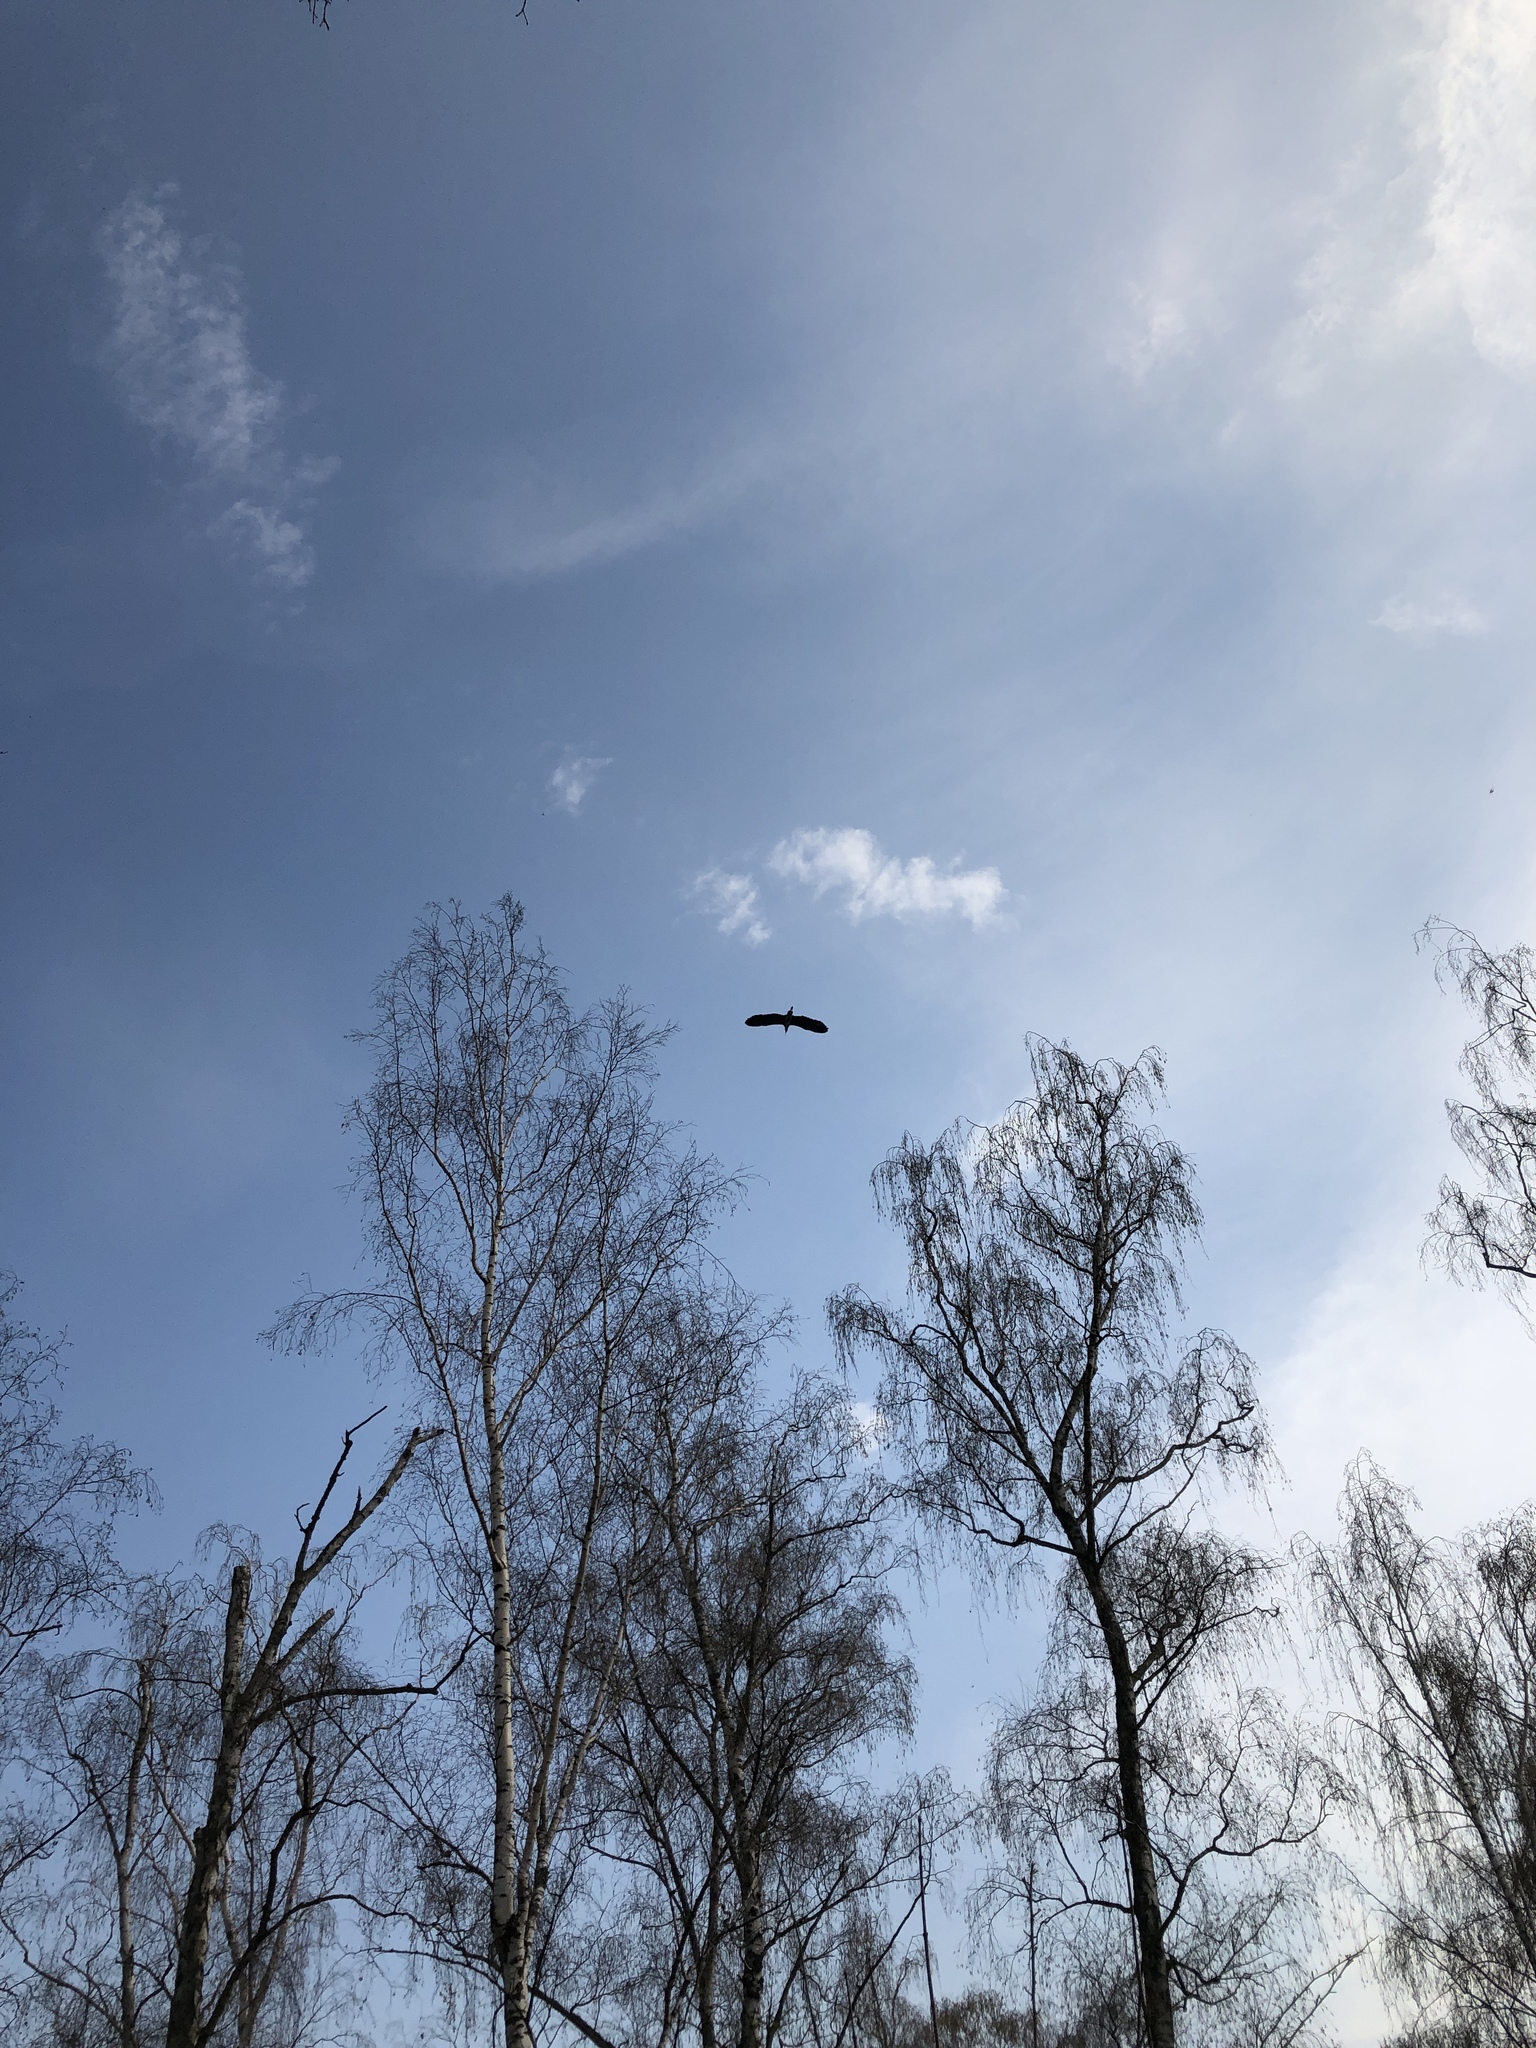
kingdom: Animalia
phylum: Chordata
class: Aves
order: Pelecaniformes
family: Ardeidae
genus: Ardea
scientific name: Ardea cinerea
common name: Grey heron
